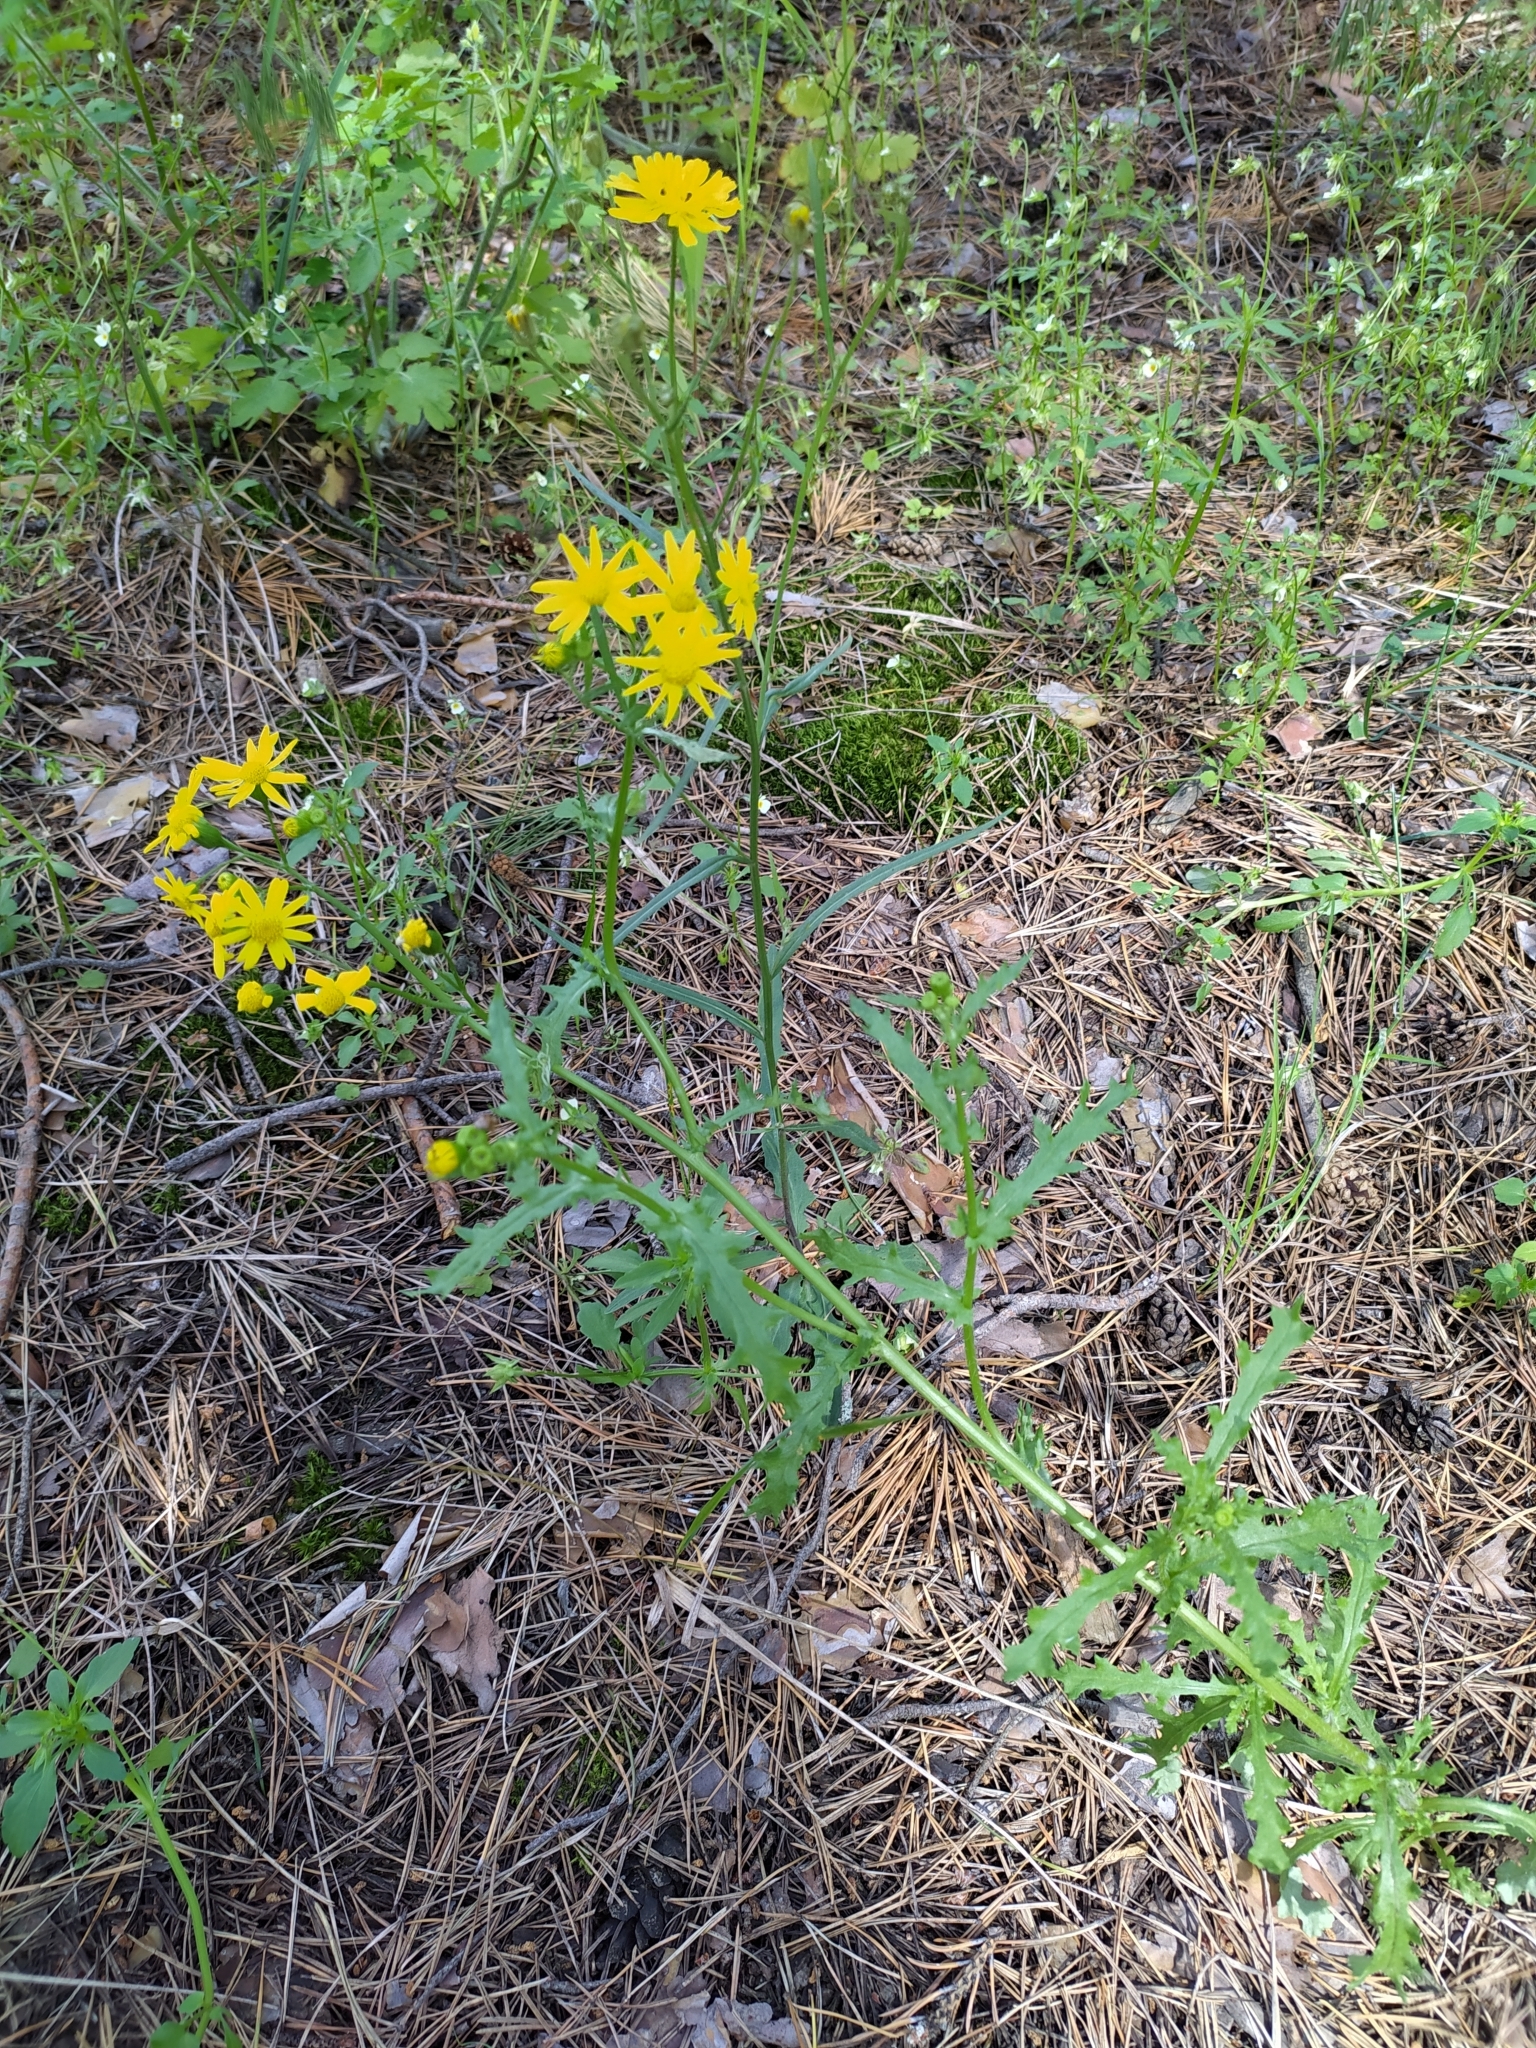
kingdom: Plantae
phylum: Tracheophyta
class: Magnoliopsida
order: Asterales
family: Asteraceae
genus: Senecio
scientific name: Senecio vernalis
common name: Eastern groundsel
